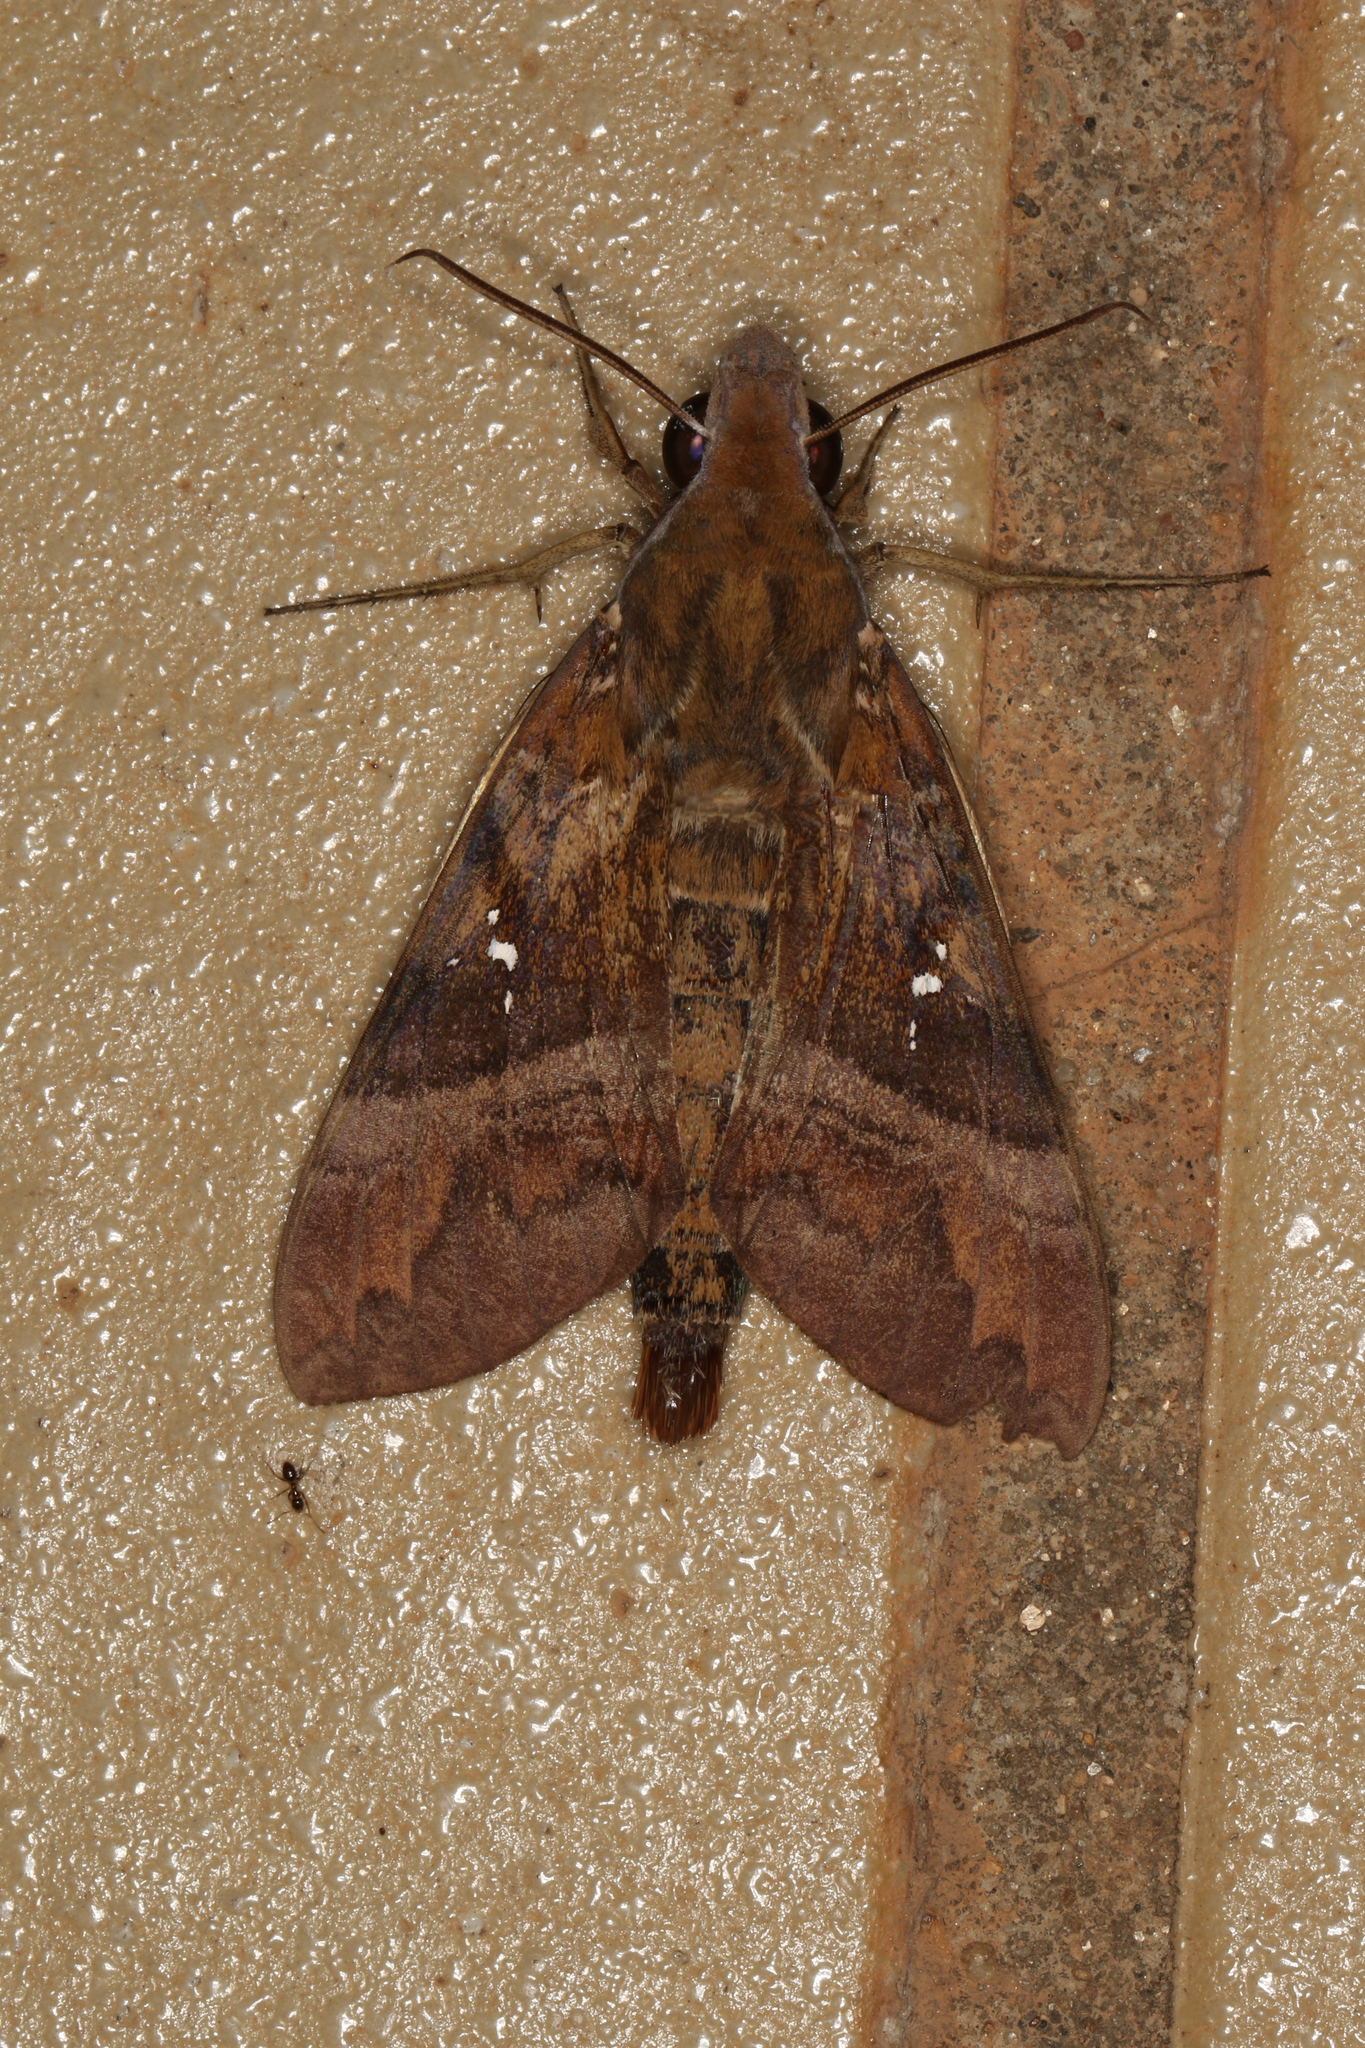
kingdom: Animalia
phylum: Arthropoda
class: Insecta
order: Lepidoptera
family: Sphingidae
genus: Nephele
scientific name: Nephele densoi
